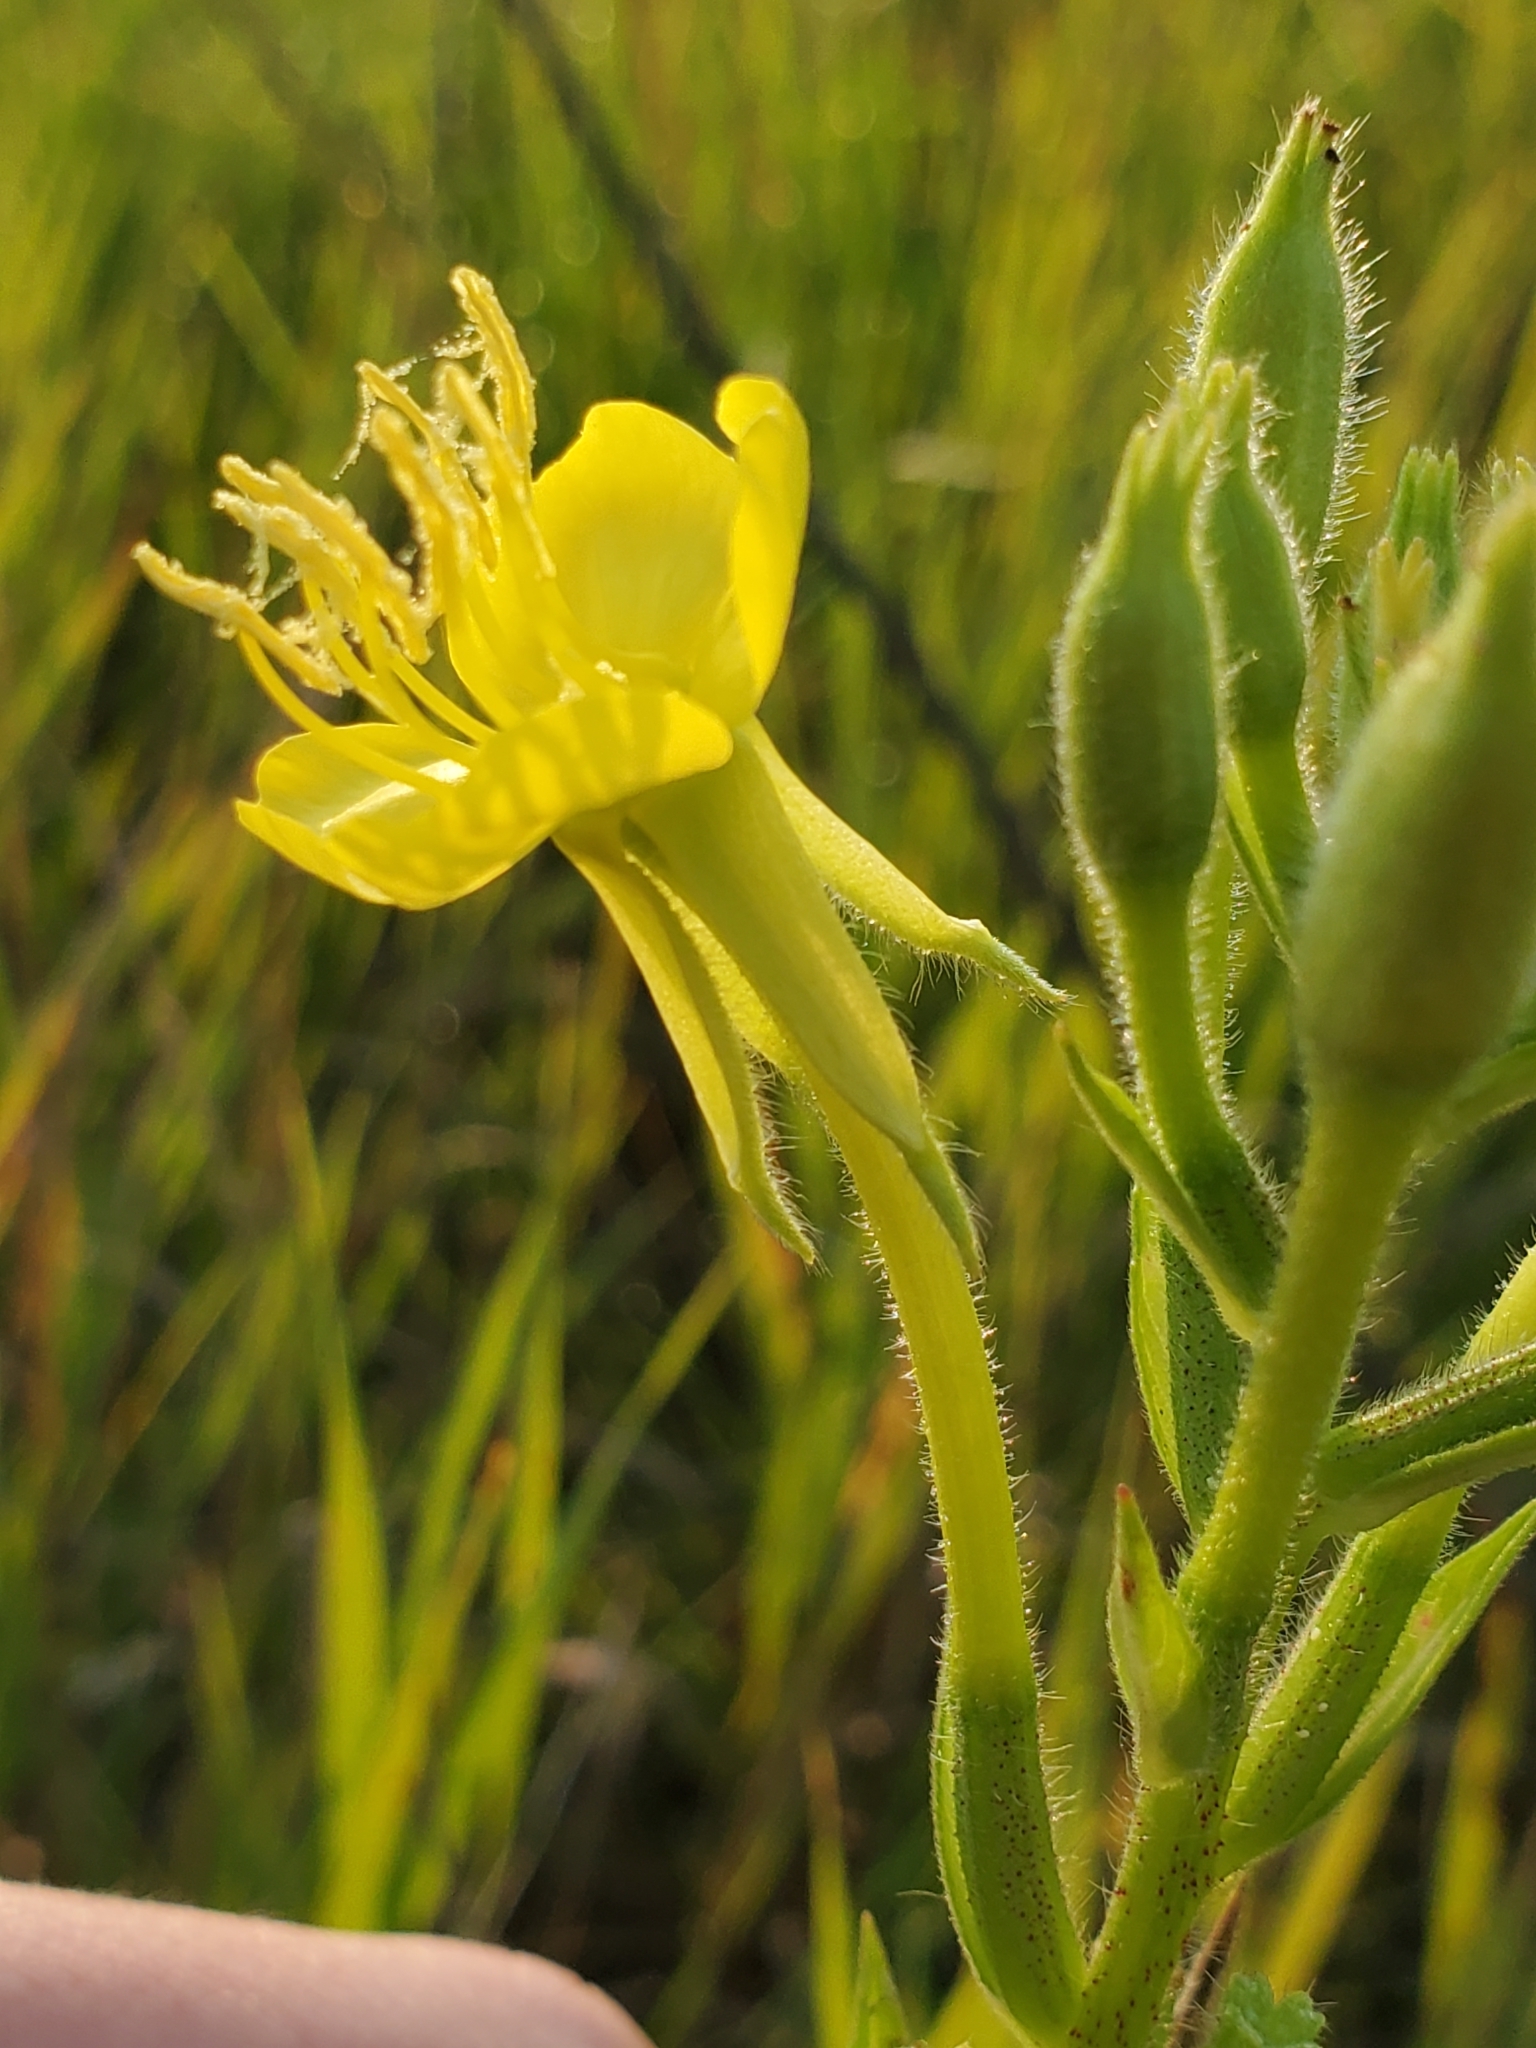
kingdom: Plantae
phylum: Tracheophyta
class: Magnoliopsida
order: Myrtales
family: Onagraceae
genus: Oenothera
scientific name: Oenothera biennis
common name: Common evening-primrose
